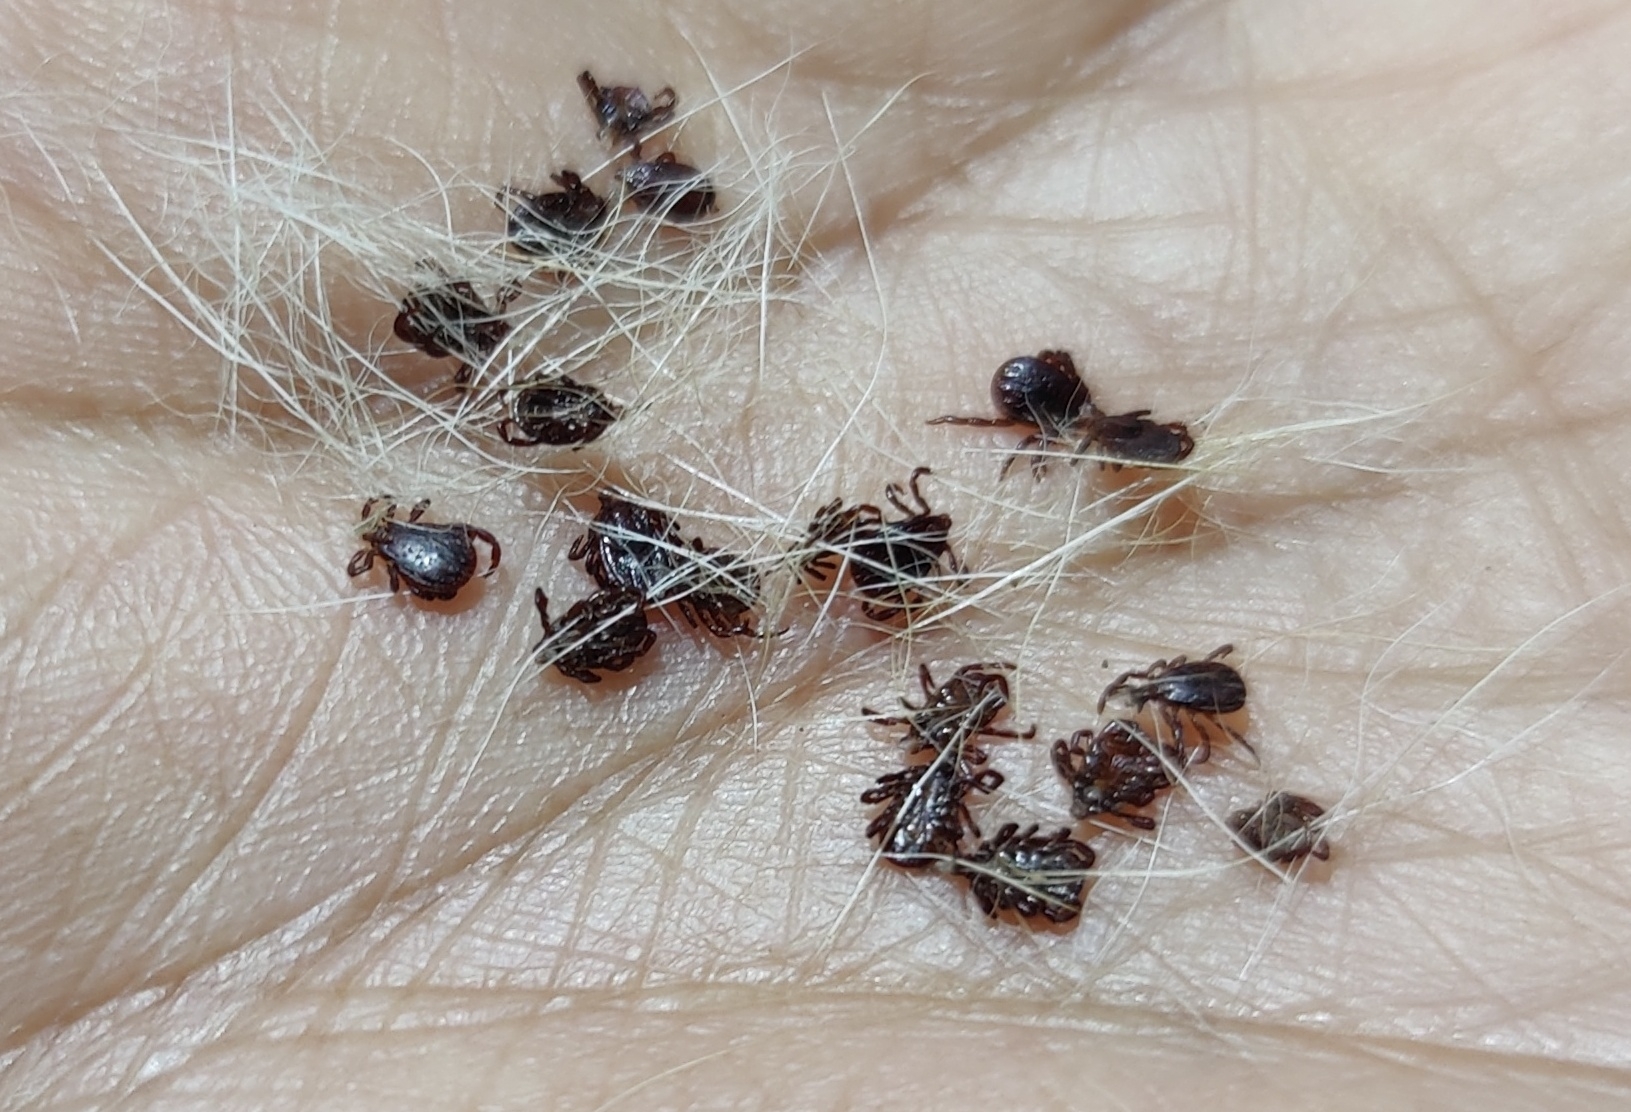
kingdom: Animalia
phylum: Arthropoda
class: Arachnida
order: Ixodida
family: Ixodidae
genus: Rhipicephalus
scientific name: Rhipicephalus sanguineus
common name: Brown dog tick
